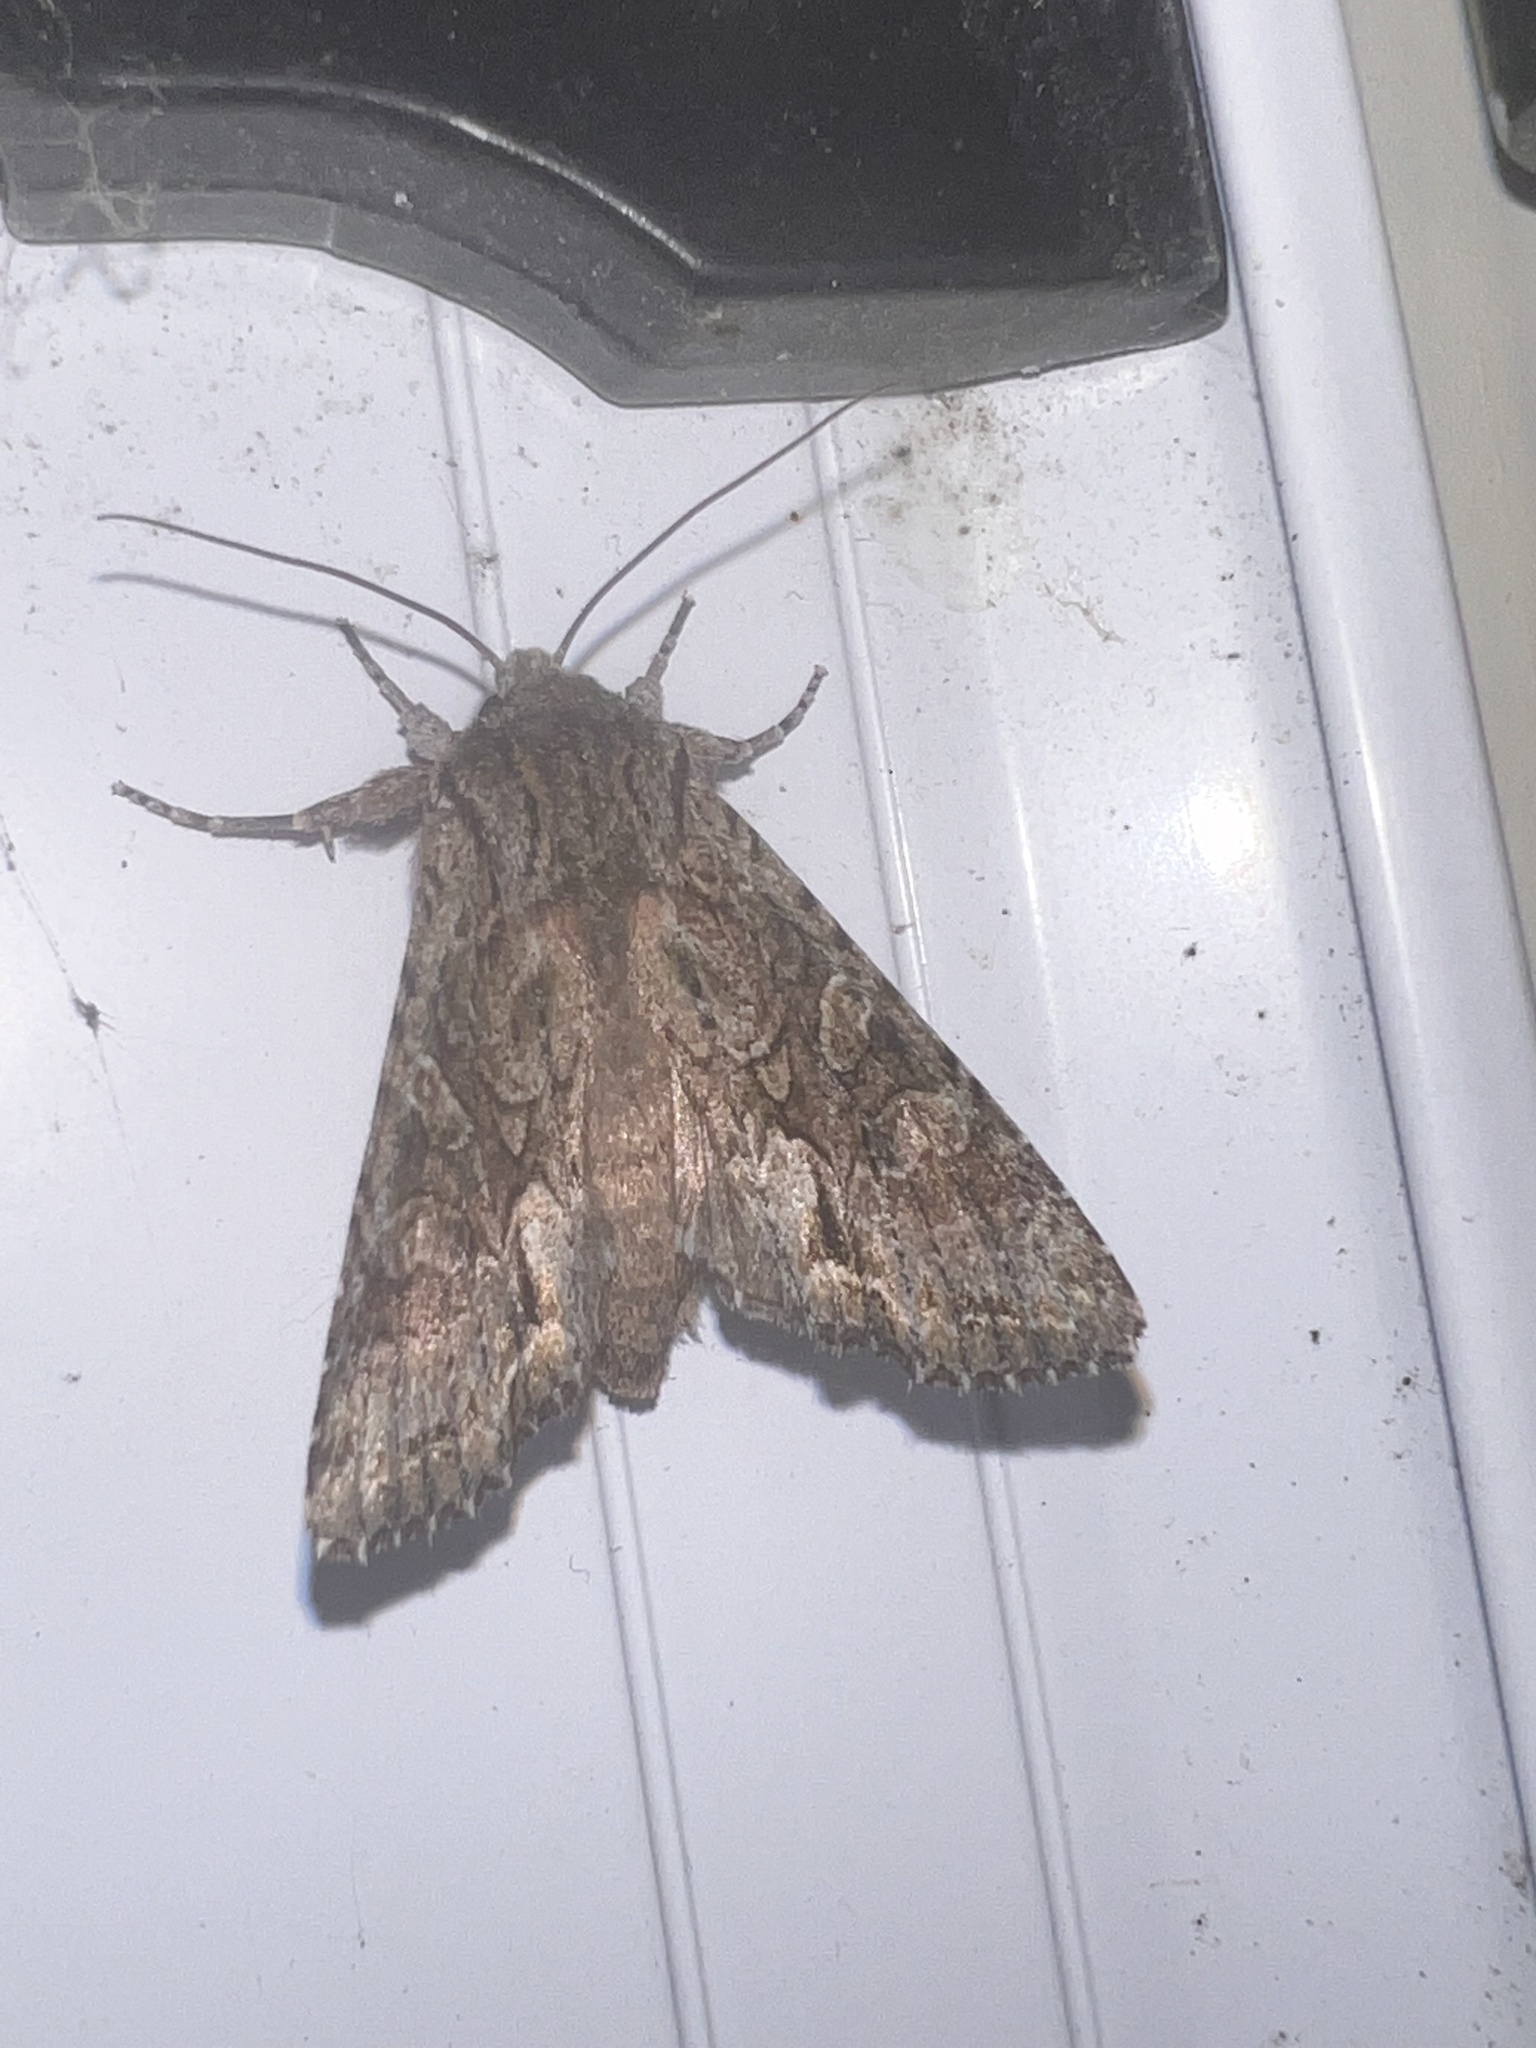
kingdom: Animalia
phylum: Arthropoda
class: Insecta
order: Lepidoptera
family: Noctuidae
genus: Ichneutica
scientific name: Ichneutica mutans
